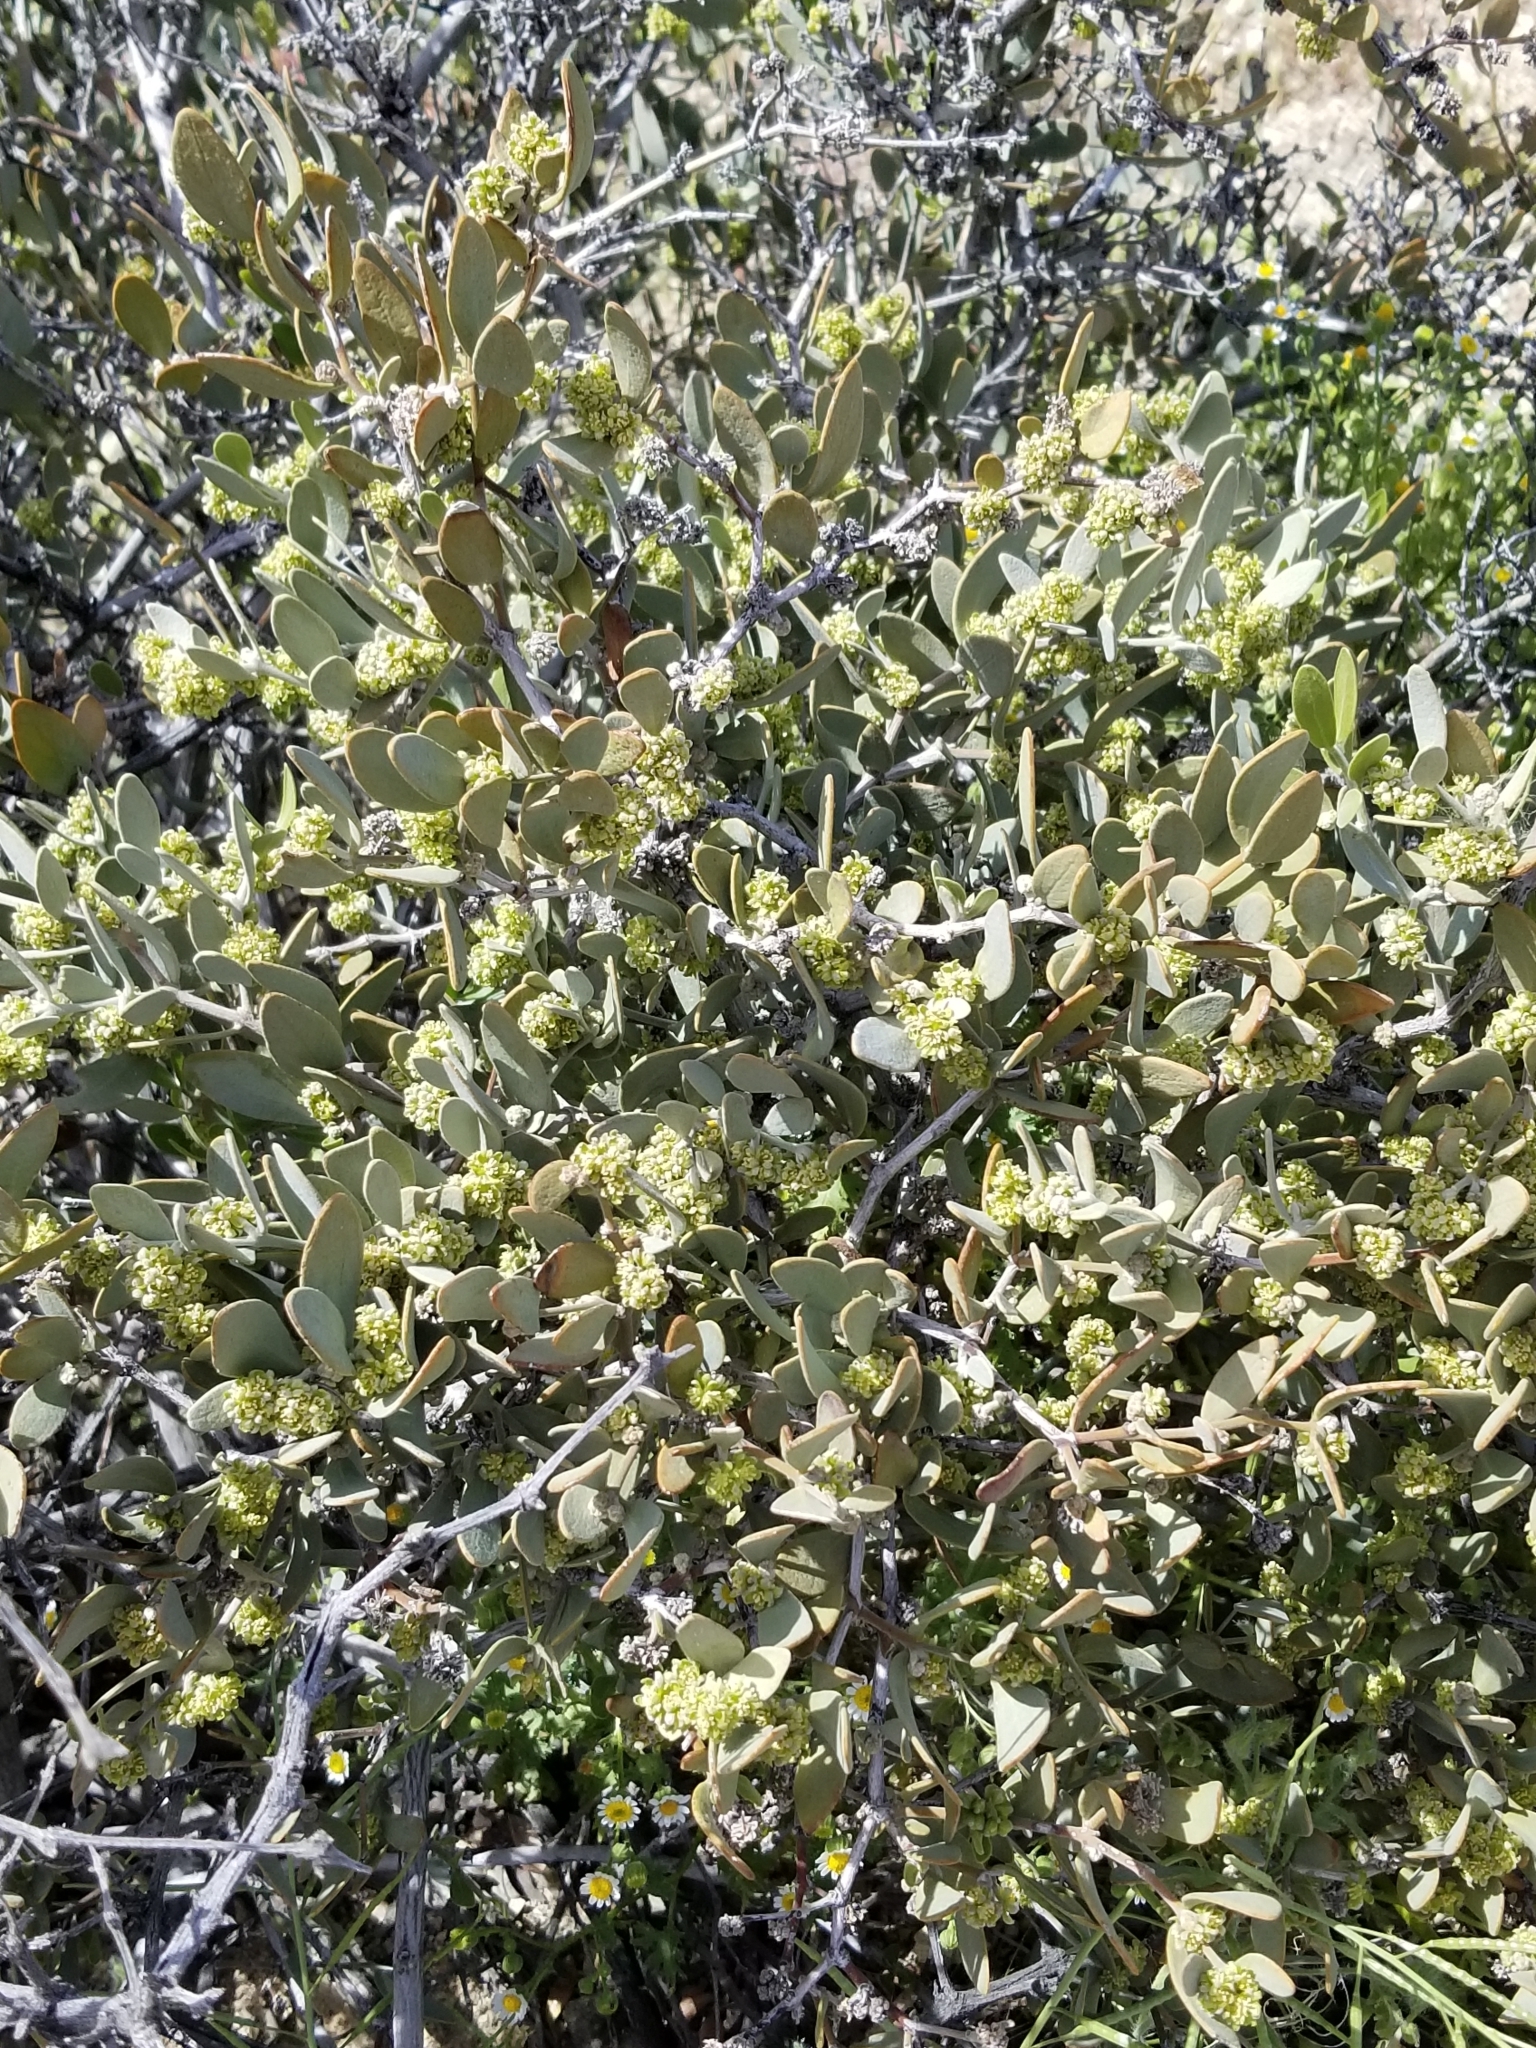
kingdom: Plantae
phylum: Tracheophyta
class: Magnoliopsida
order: Caryophyllales
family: Simmondsiaceae
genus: Simmondsia
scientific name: Simmondsia chinensis
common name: Jojoba
